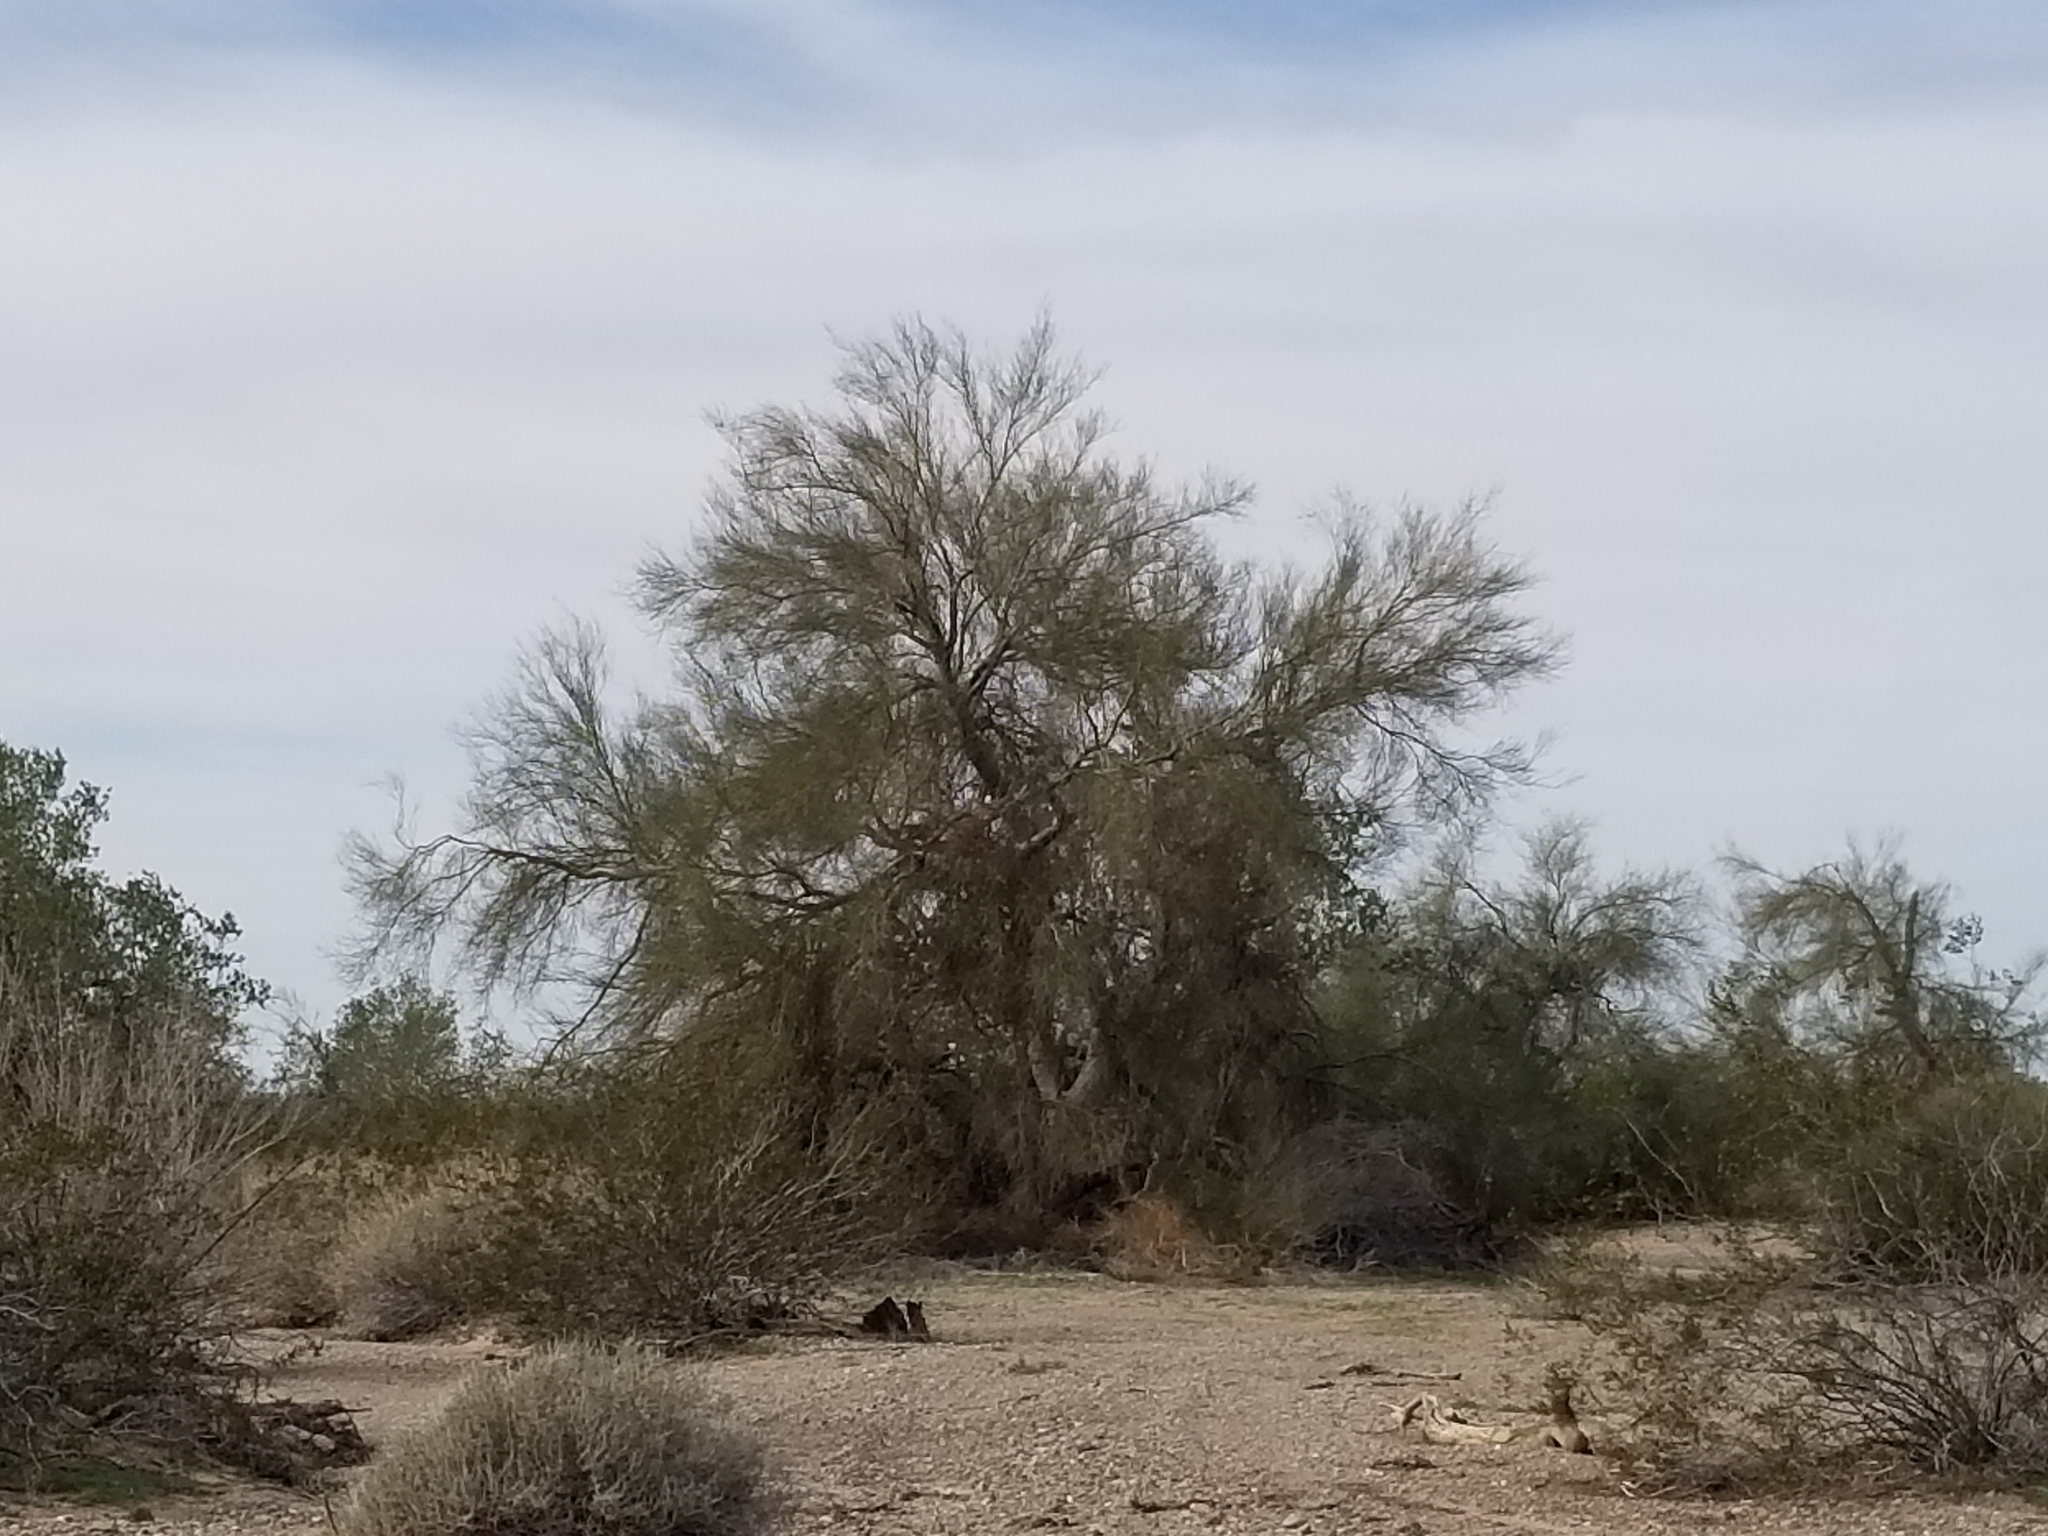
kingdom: Plantae
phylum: Tracheophyta
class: Magnoliopsida
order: Fabales
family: Fabaceae
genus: Parkinsonia
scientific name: Parkinsonia florida
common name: Blue paloverde
